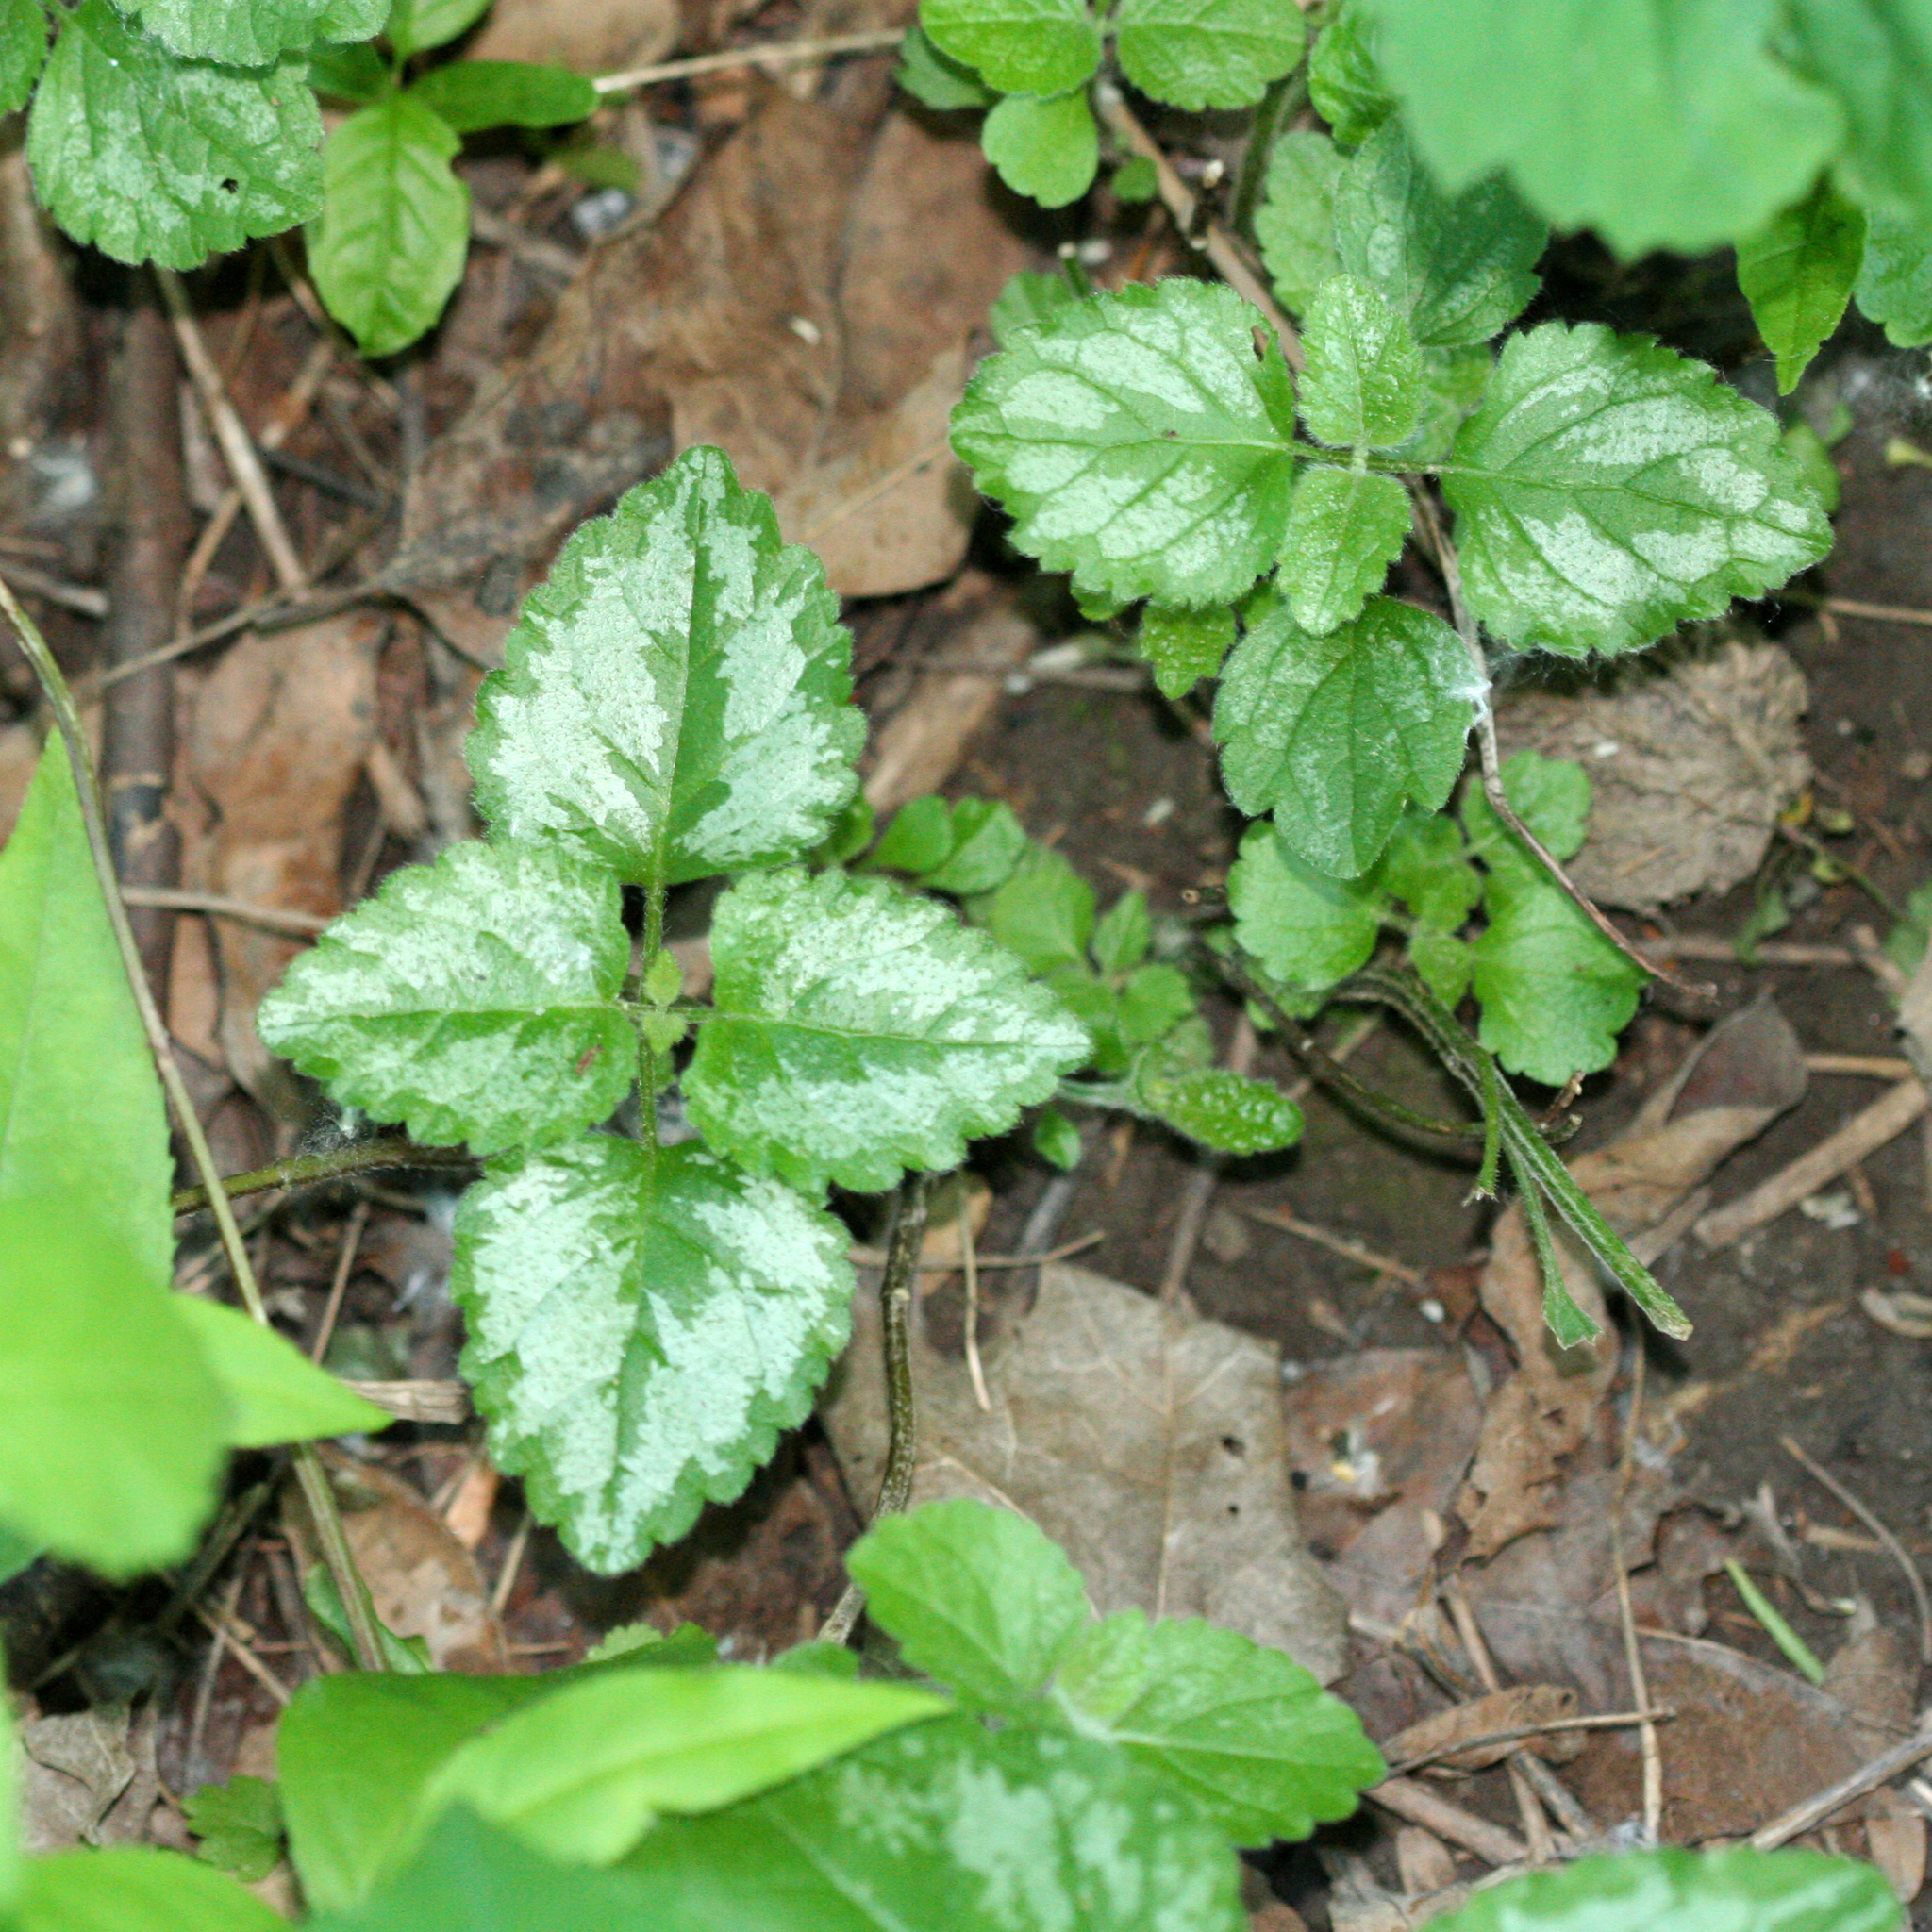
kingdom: Plantae
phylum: Tracheophyta
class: Magnoliopsida
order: Lamiales
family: Lamiaceae
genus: Lamium
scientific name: Lamium galeobdolon
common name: Yellow archangel
